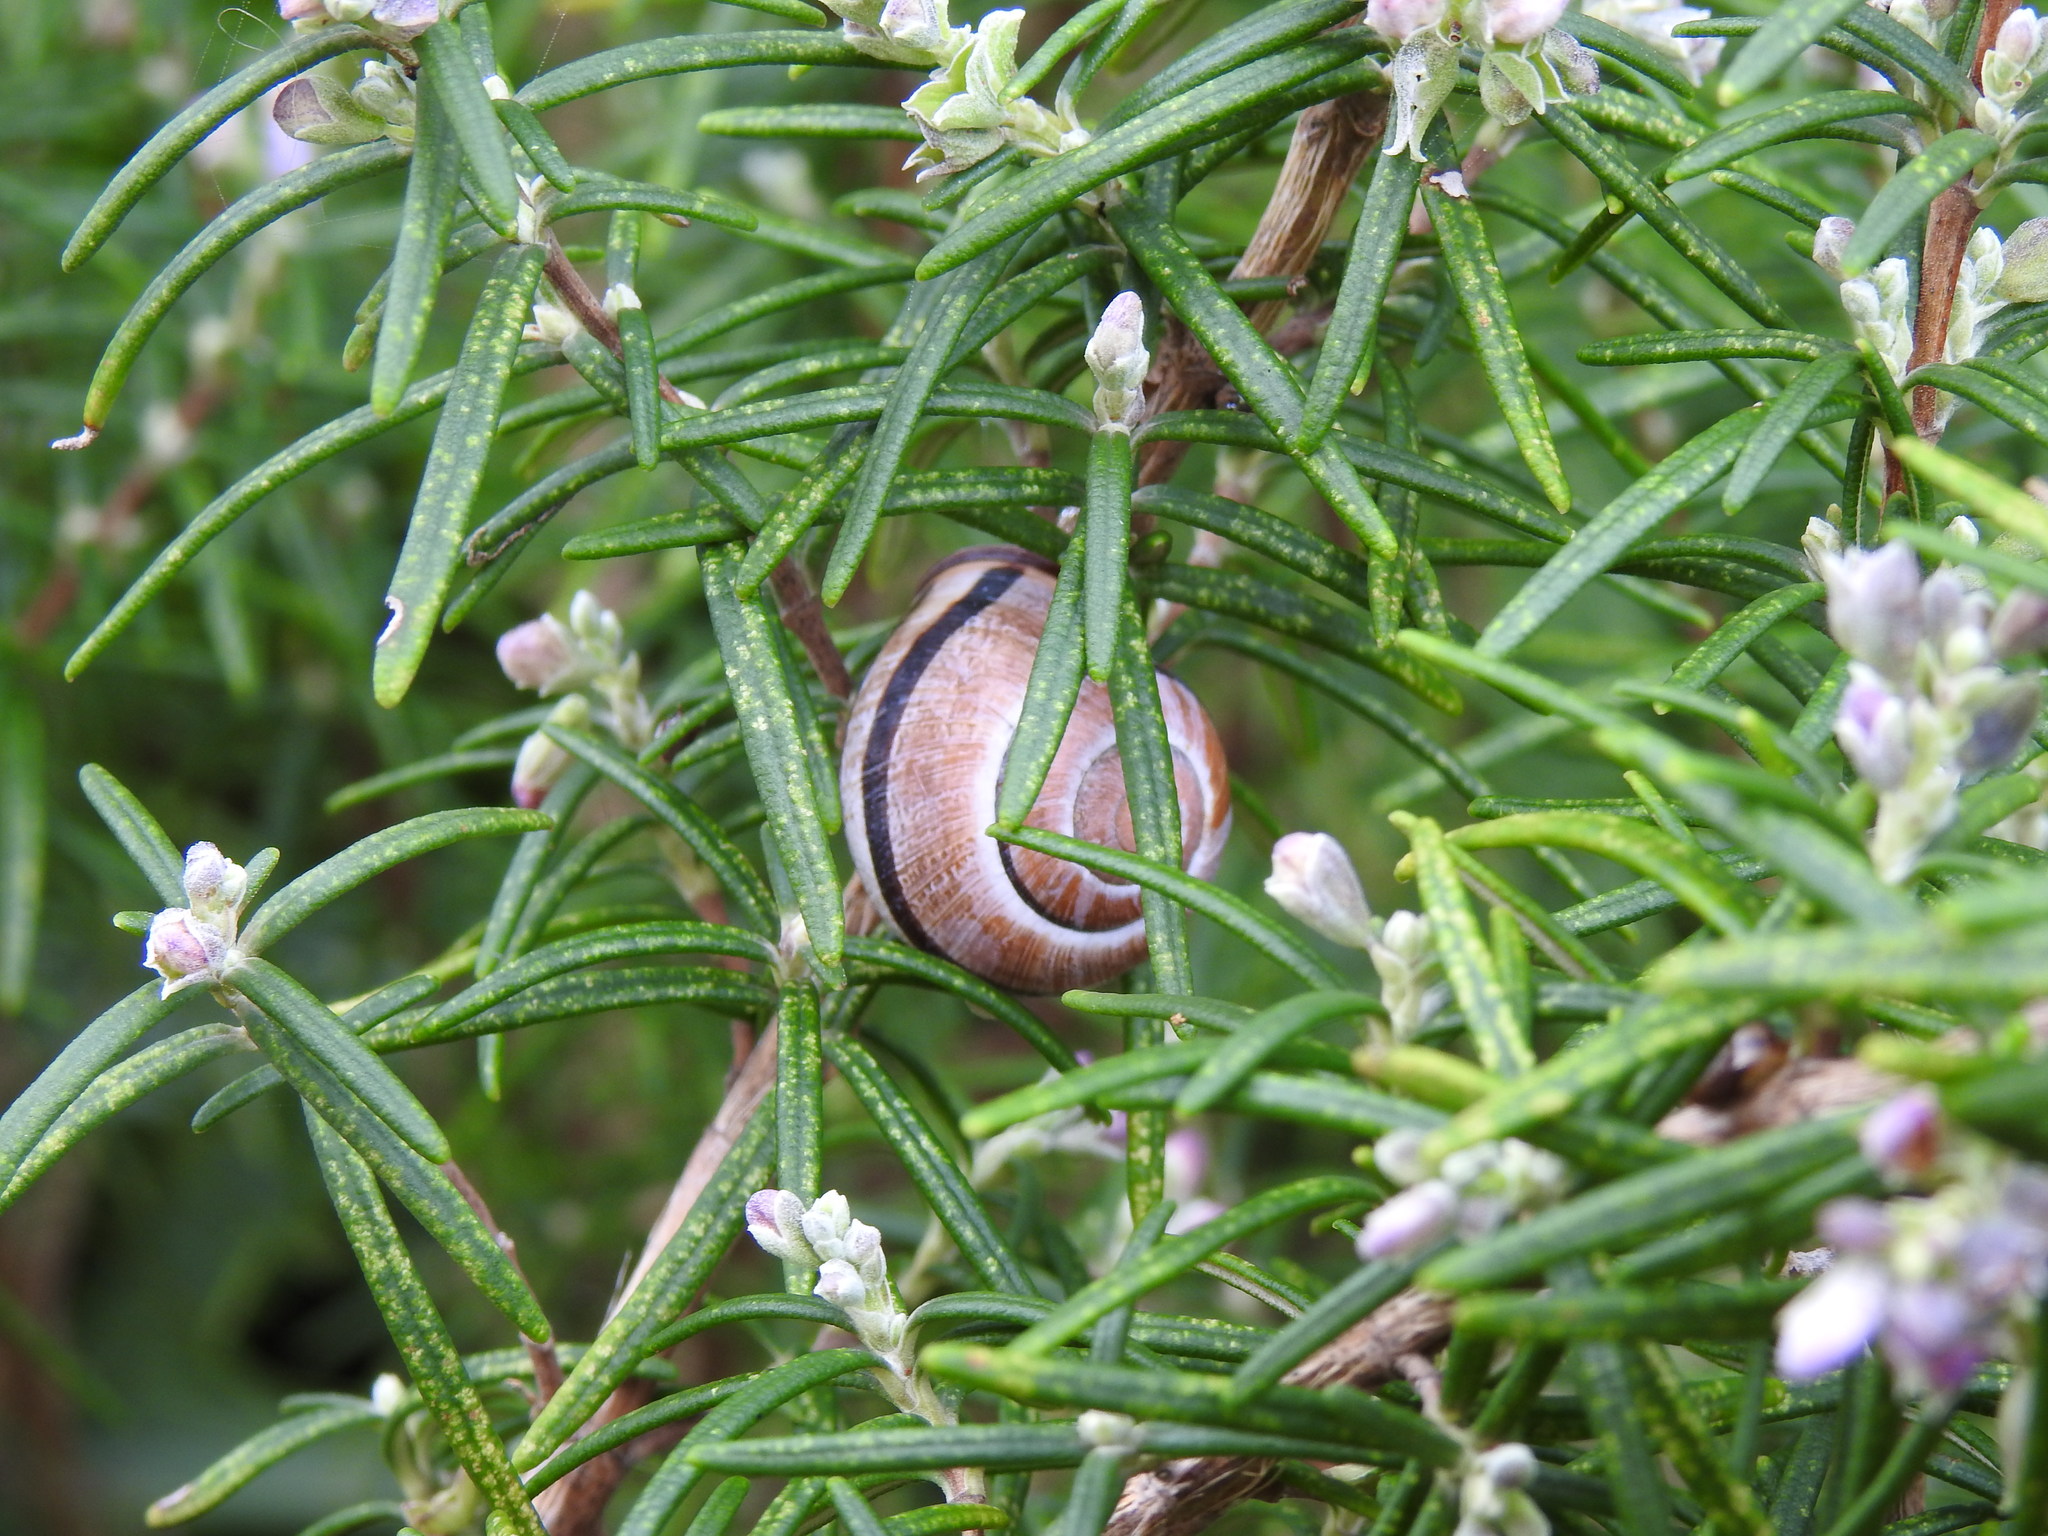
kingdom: Animalia
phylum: Mollusca
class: Gastropoda
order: Stylommatophora
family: Helicidae
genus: Cepaea
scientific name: Cepaea nemoralis
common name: Grovesnail
